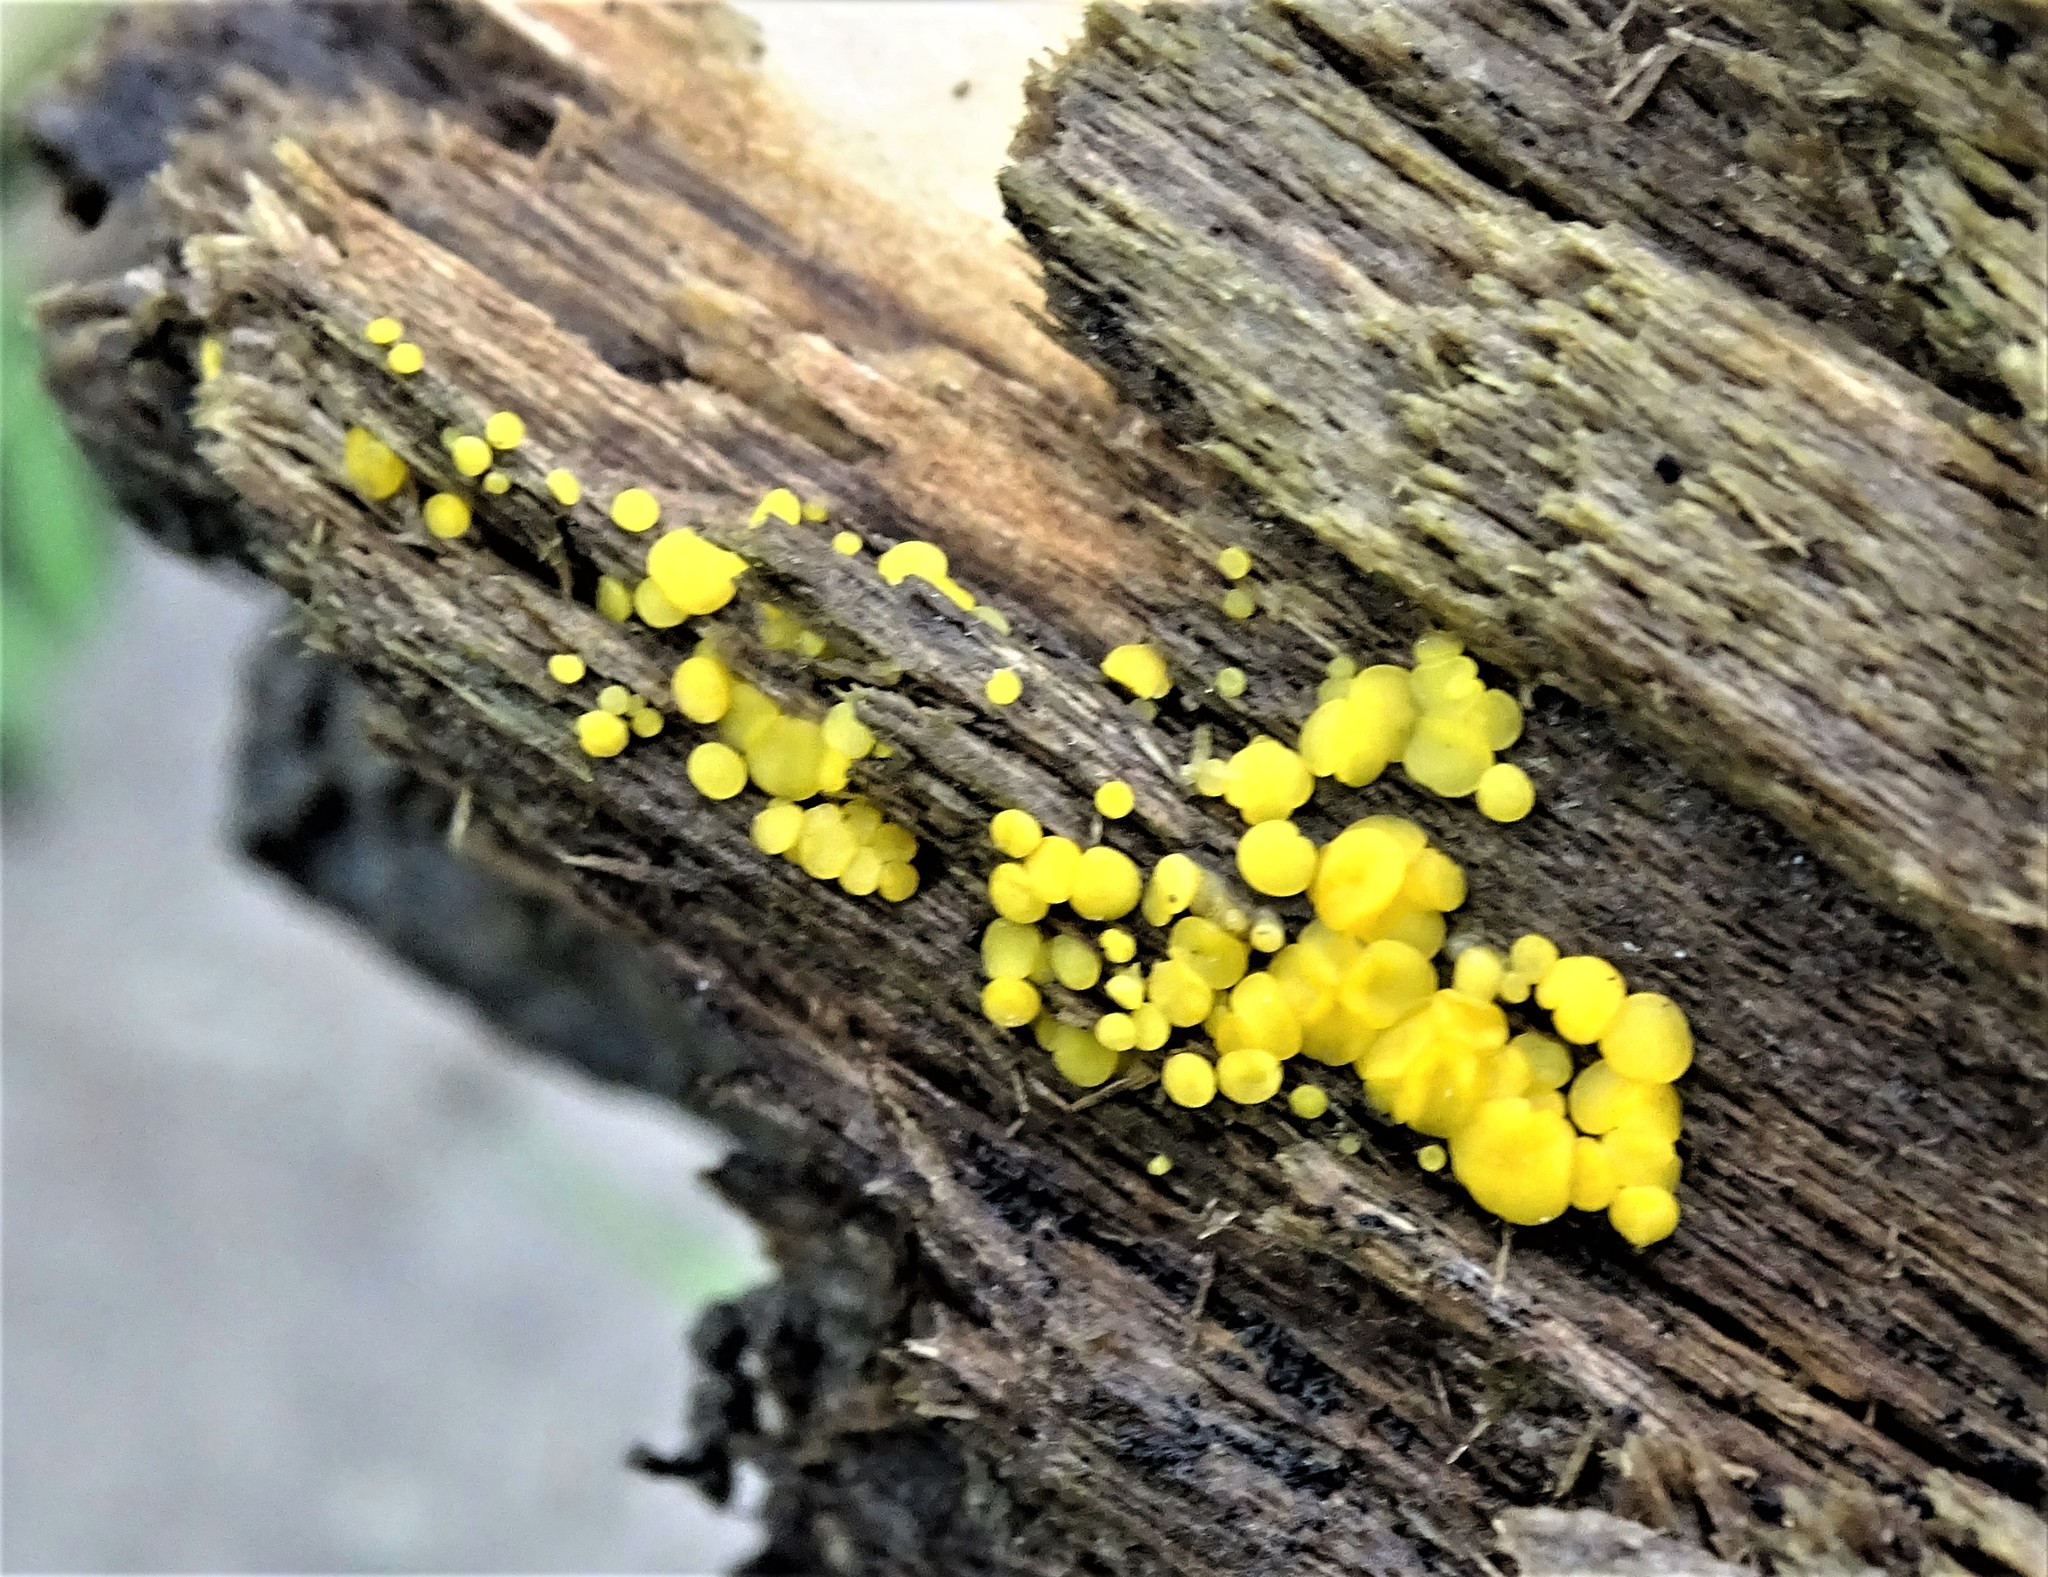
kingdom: Fungi
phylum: Ascomycota
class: Leotiomycetes
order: Helotiales
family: Pezizellaceae
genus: Calycina
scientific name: Calycina citrina
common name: Yellow fairy cups
